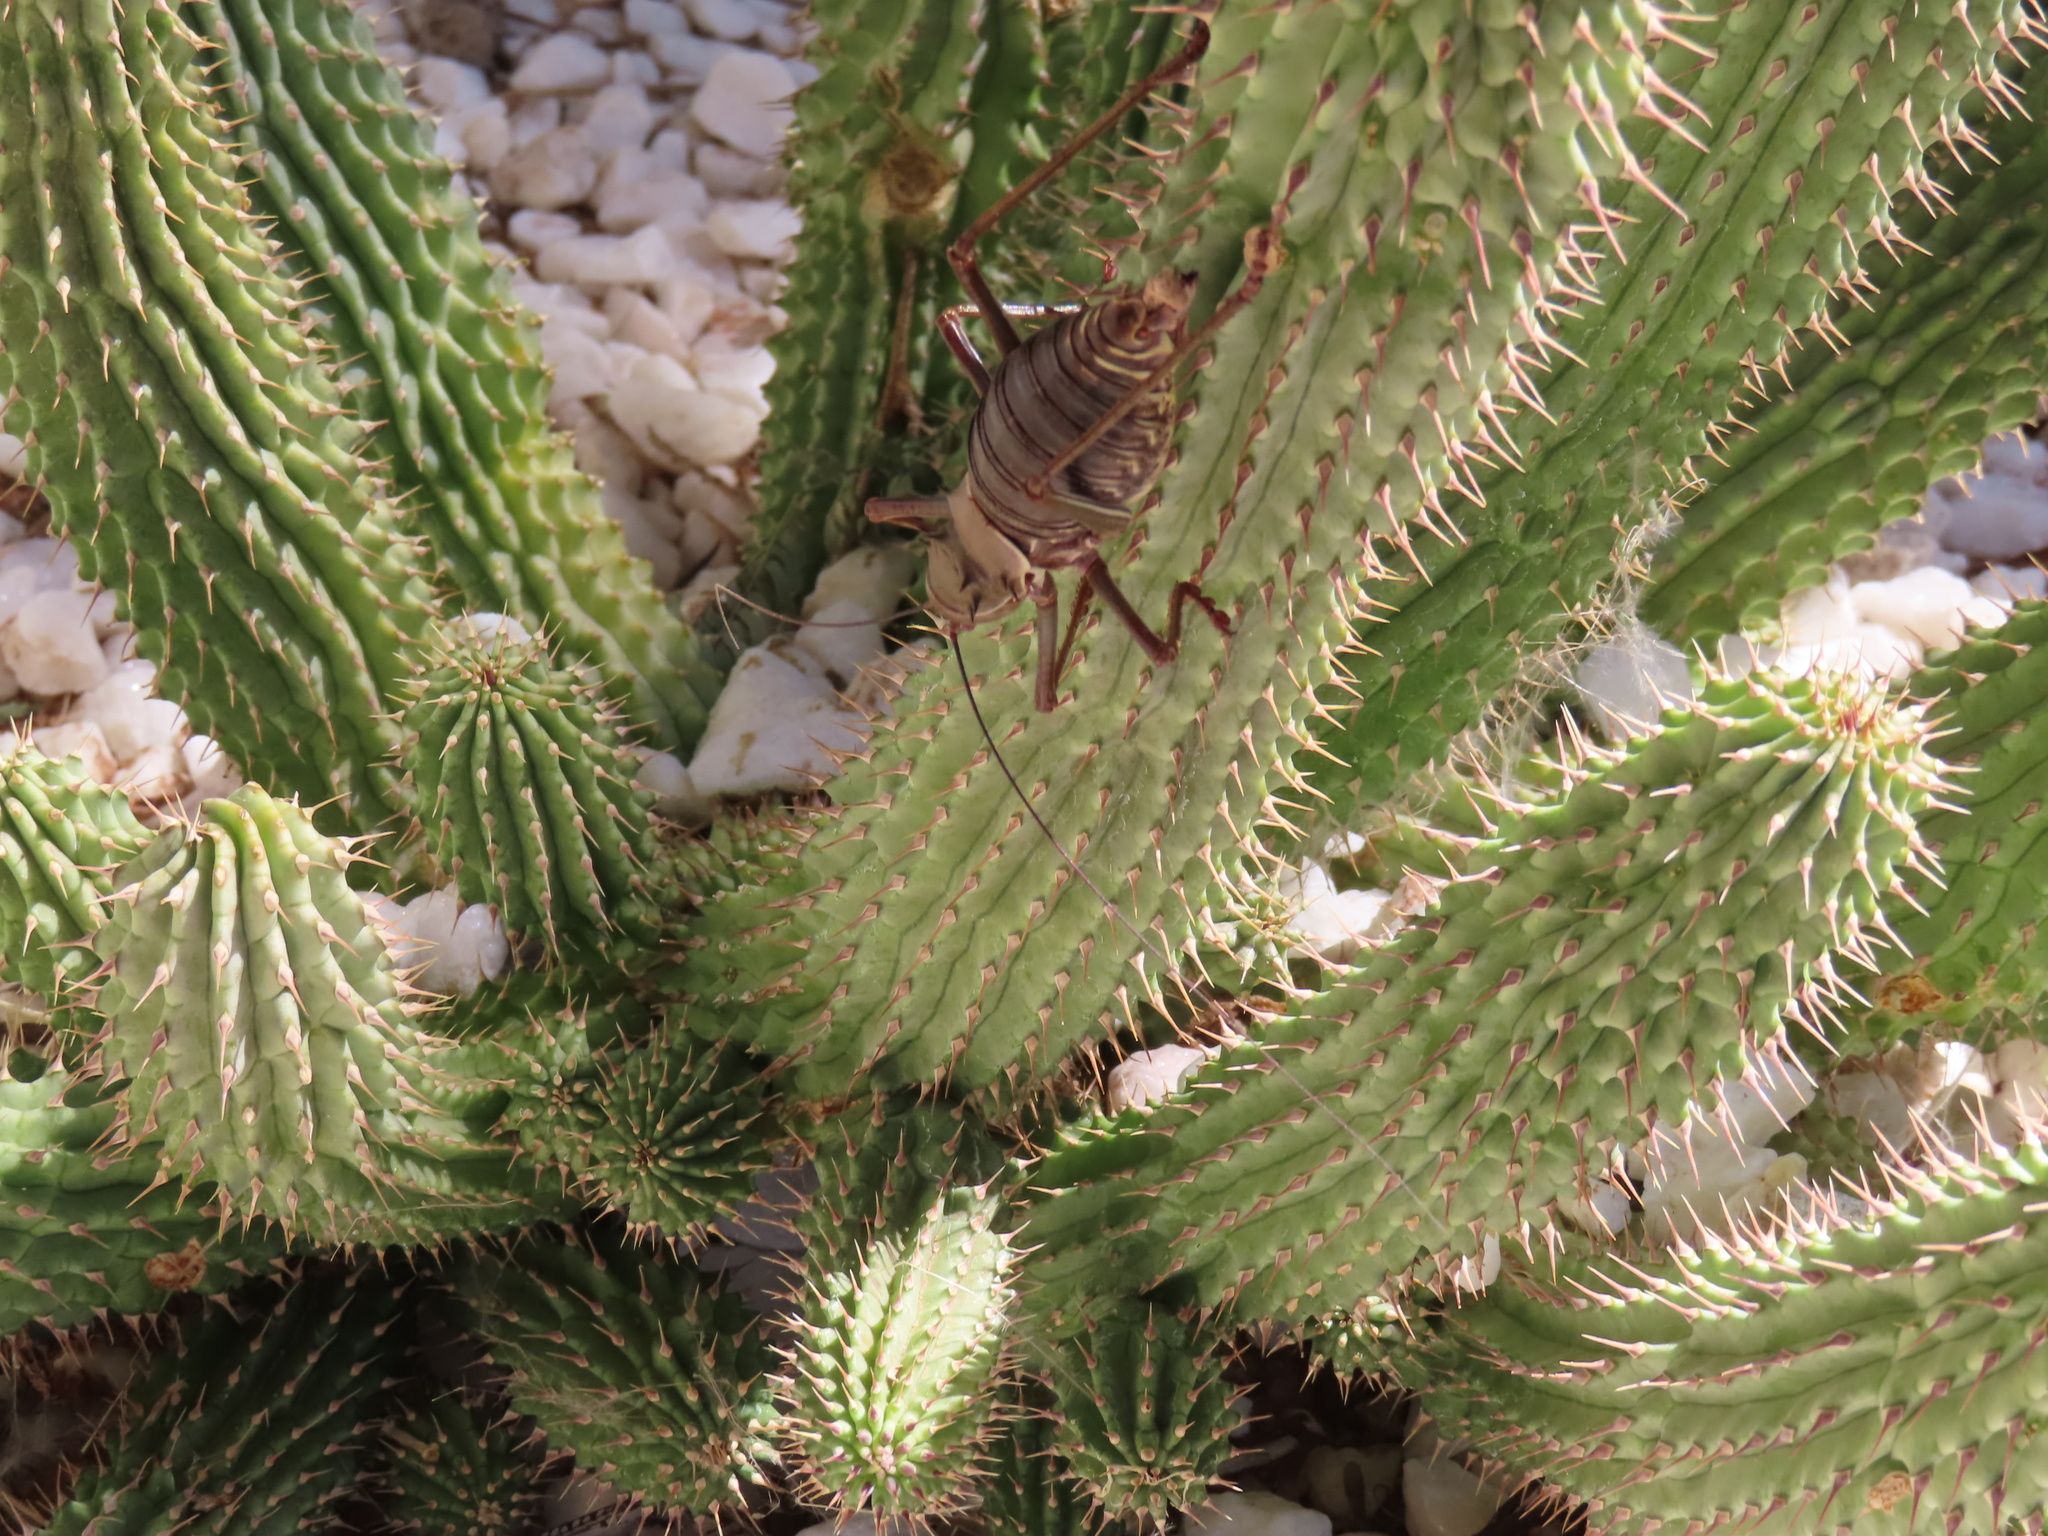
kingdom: Animalia
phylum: Arthropoda
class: Insecta
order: Orthoptera
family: Tettigoniidae
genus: Acanthoplus
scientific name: Acanthoplus longipes
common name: Long-legged armoured katydid
